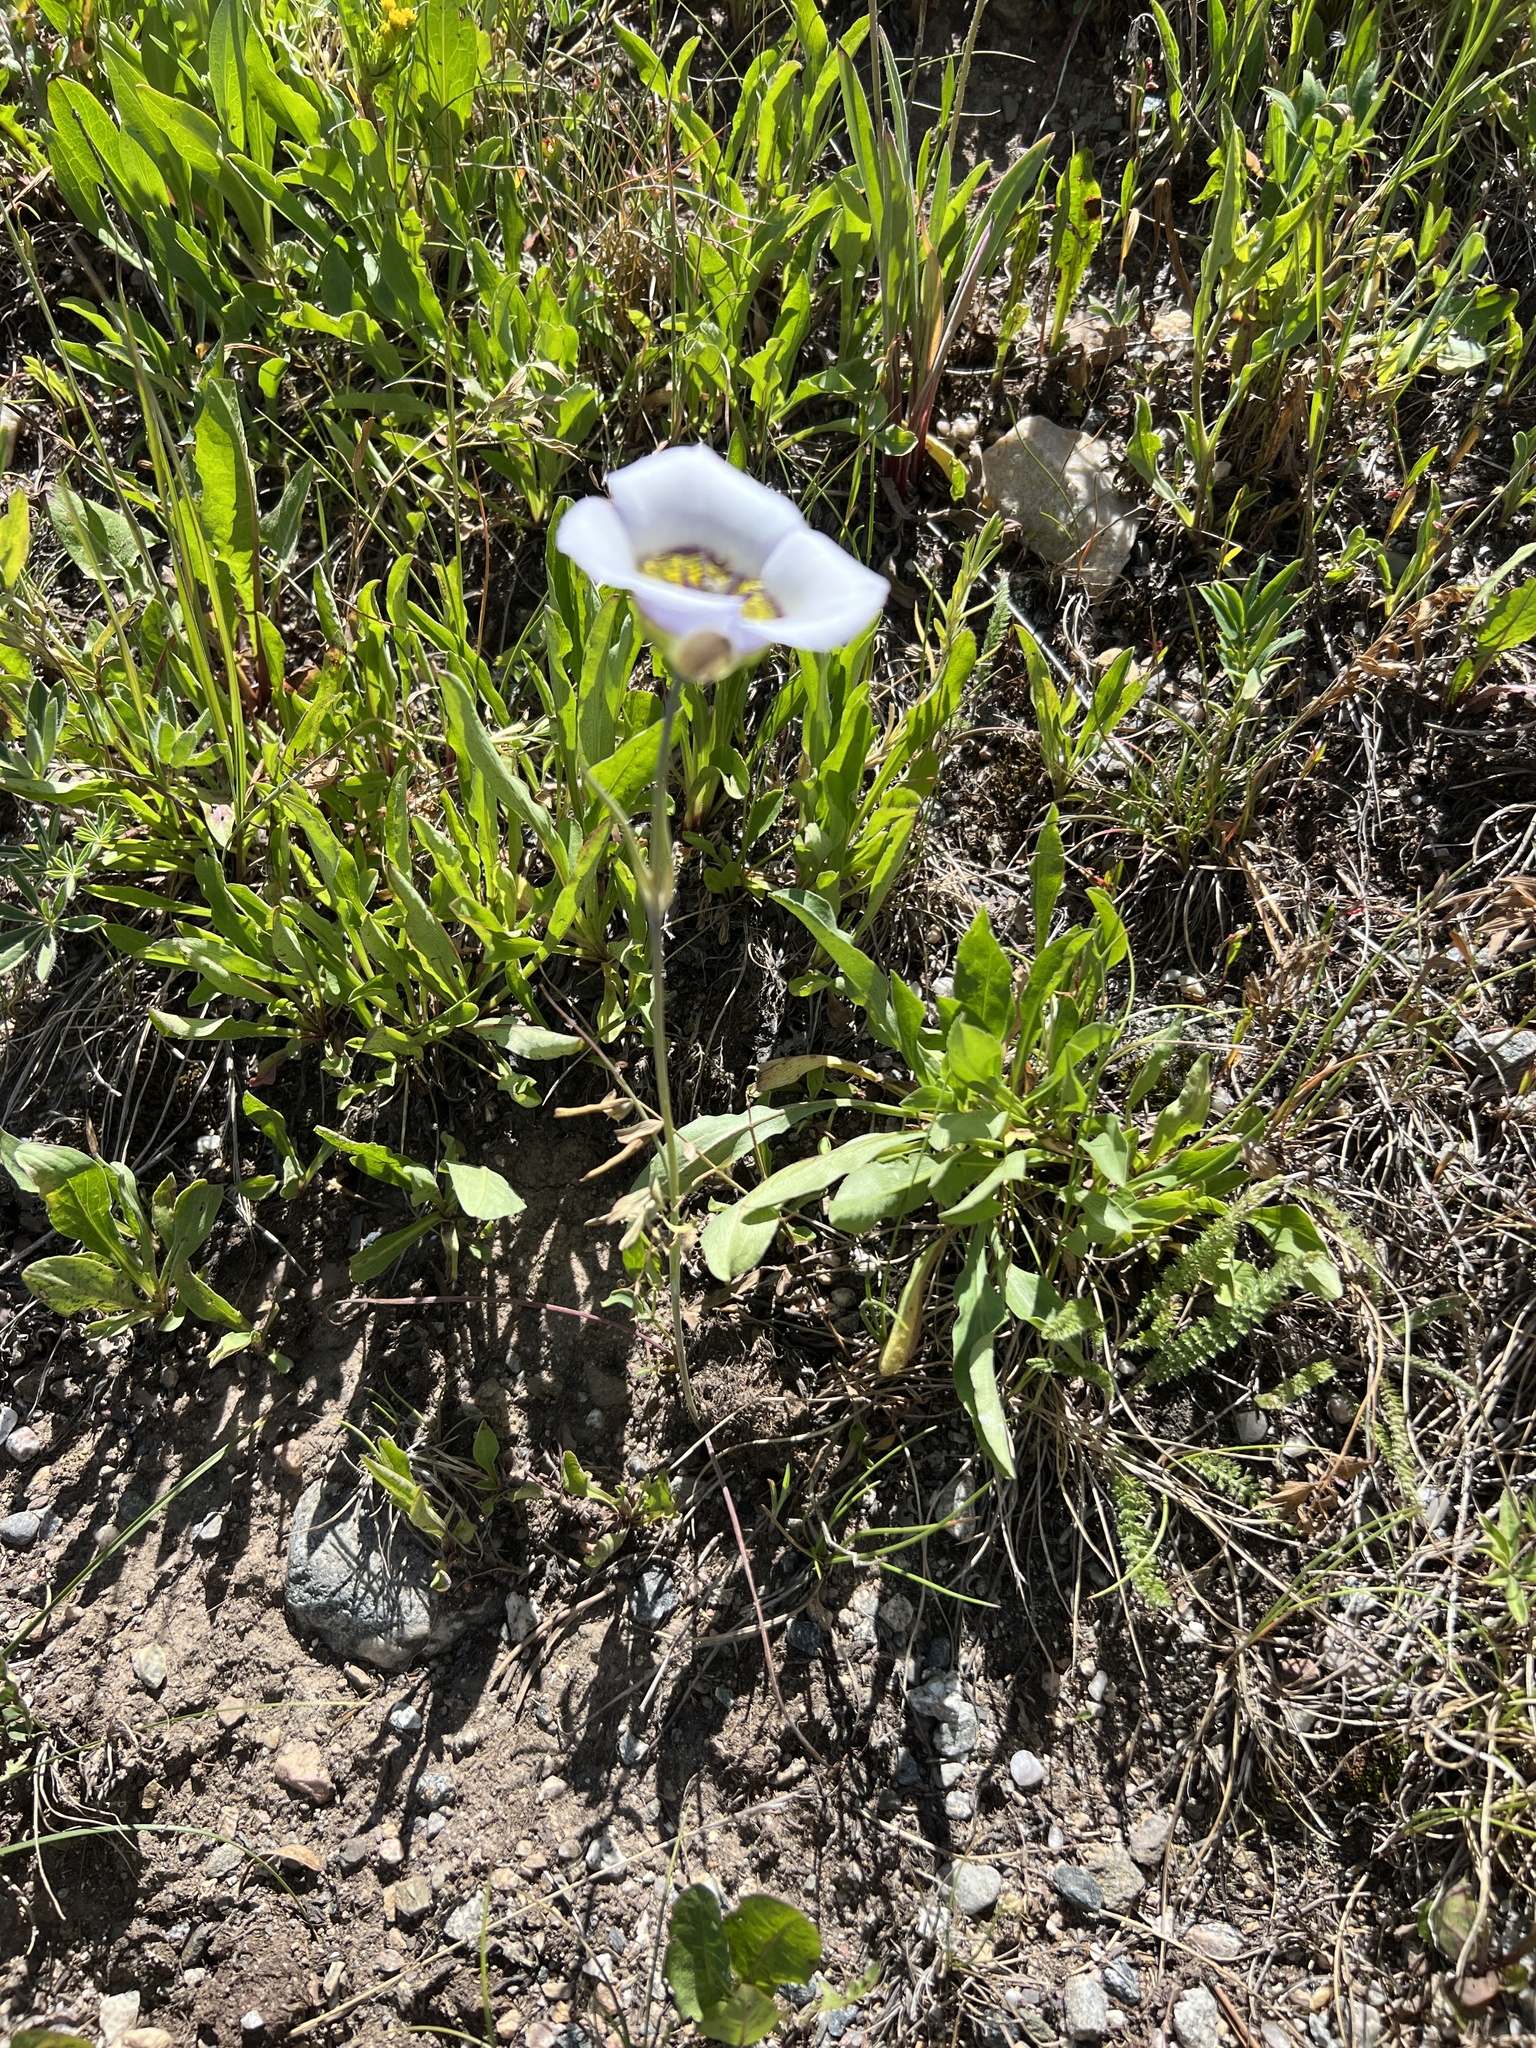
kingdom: Plantae
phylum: Tracheophyta
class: Liliopsida
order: Liliales
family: Liliaceae
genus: Calochortus
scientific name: Calochortus gunnisonii
